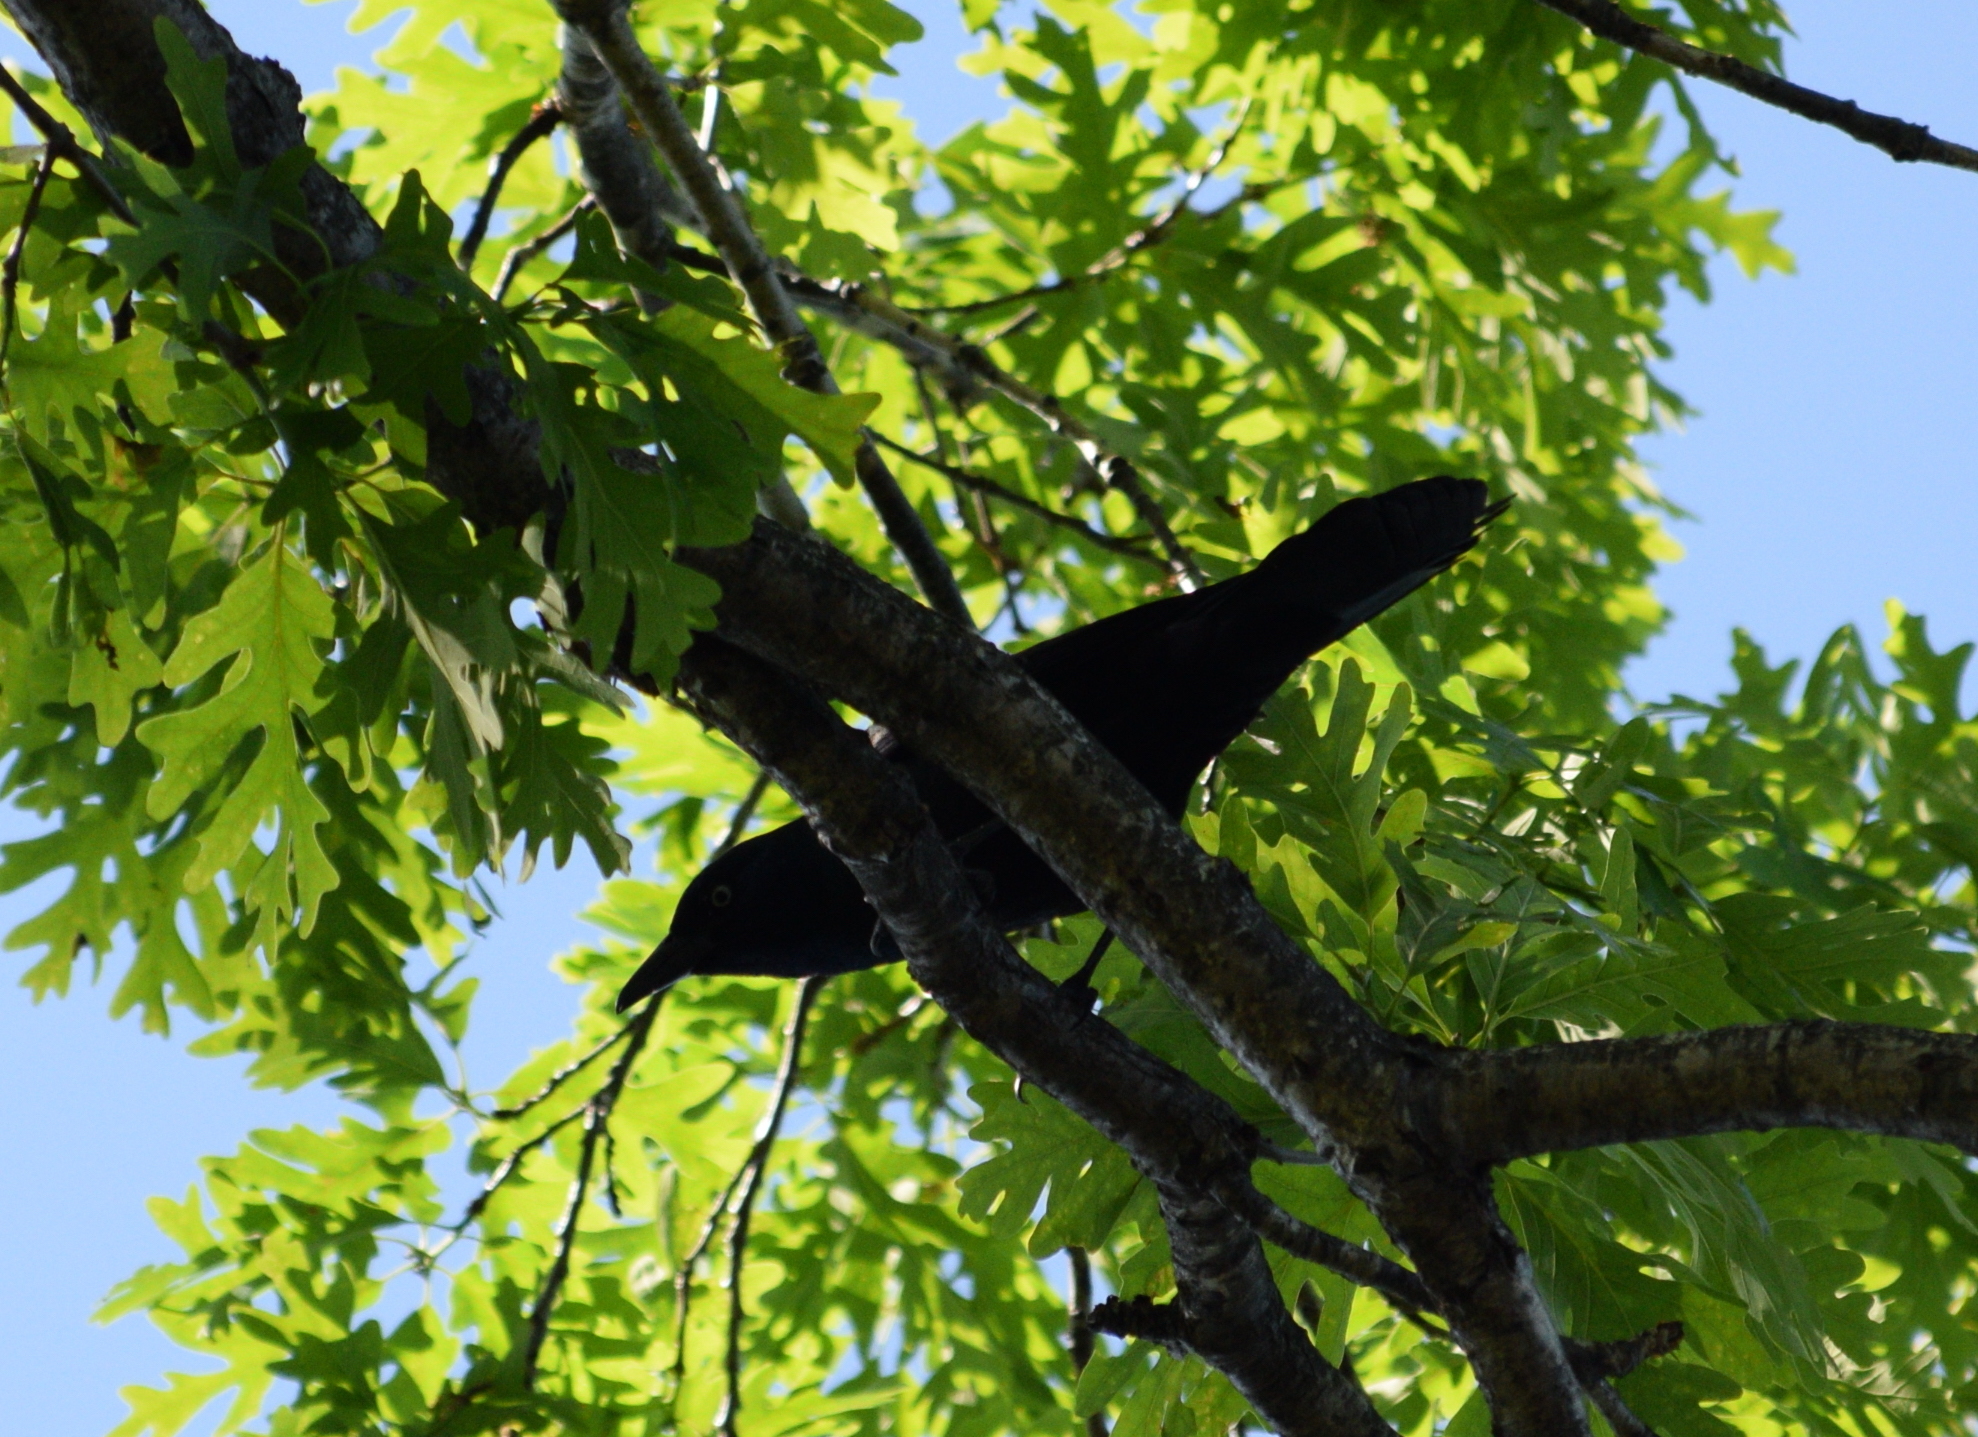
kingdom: Animalia
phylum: Chordata
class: Aves
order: Passeriformes
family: Icteridae
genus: Quiscalus
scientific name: Quiscalus quiscula
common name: Common grackle
